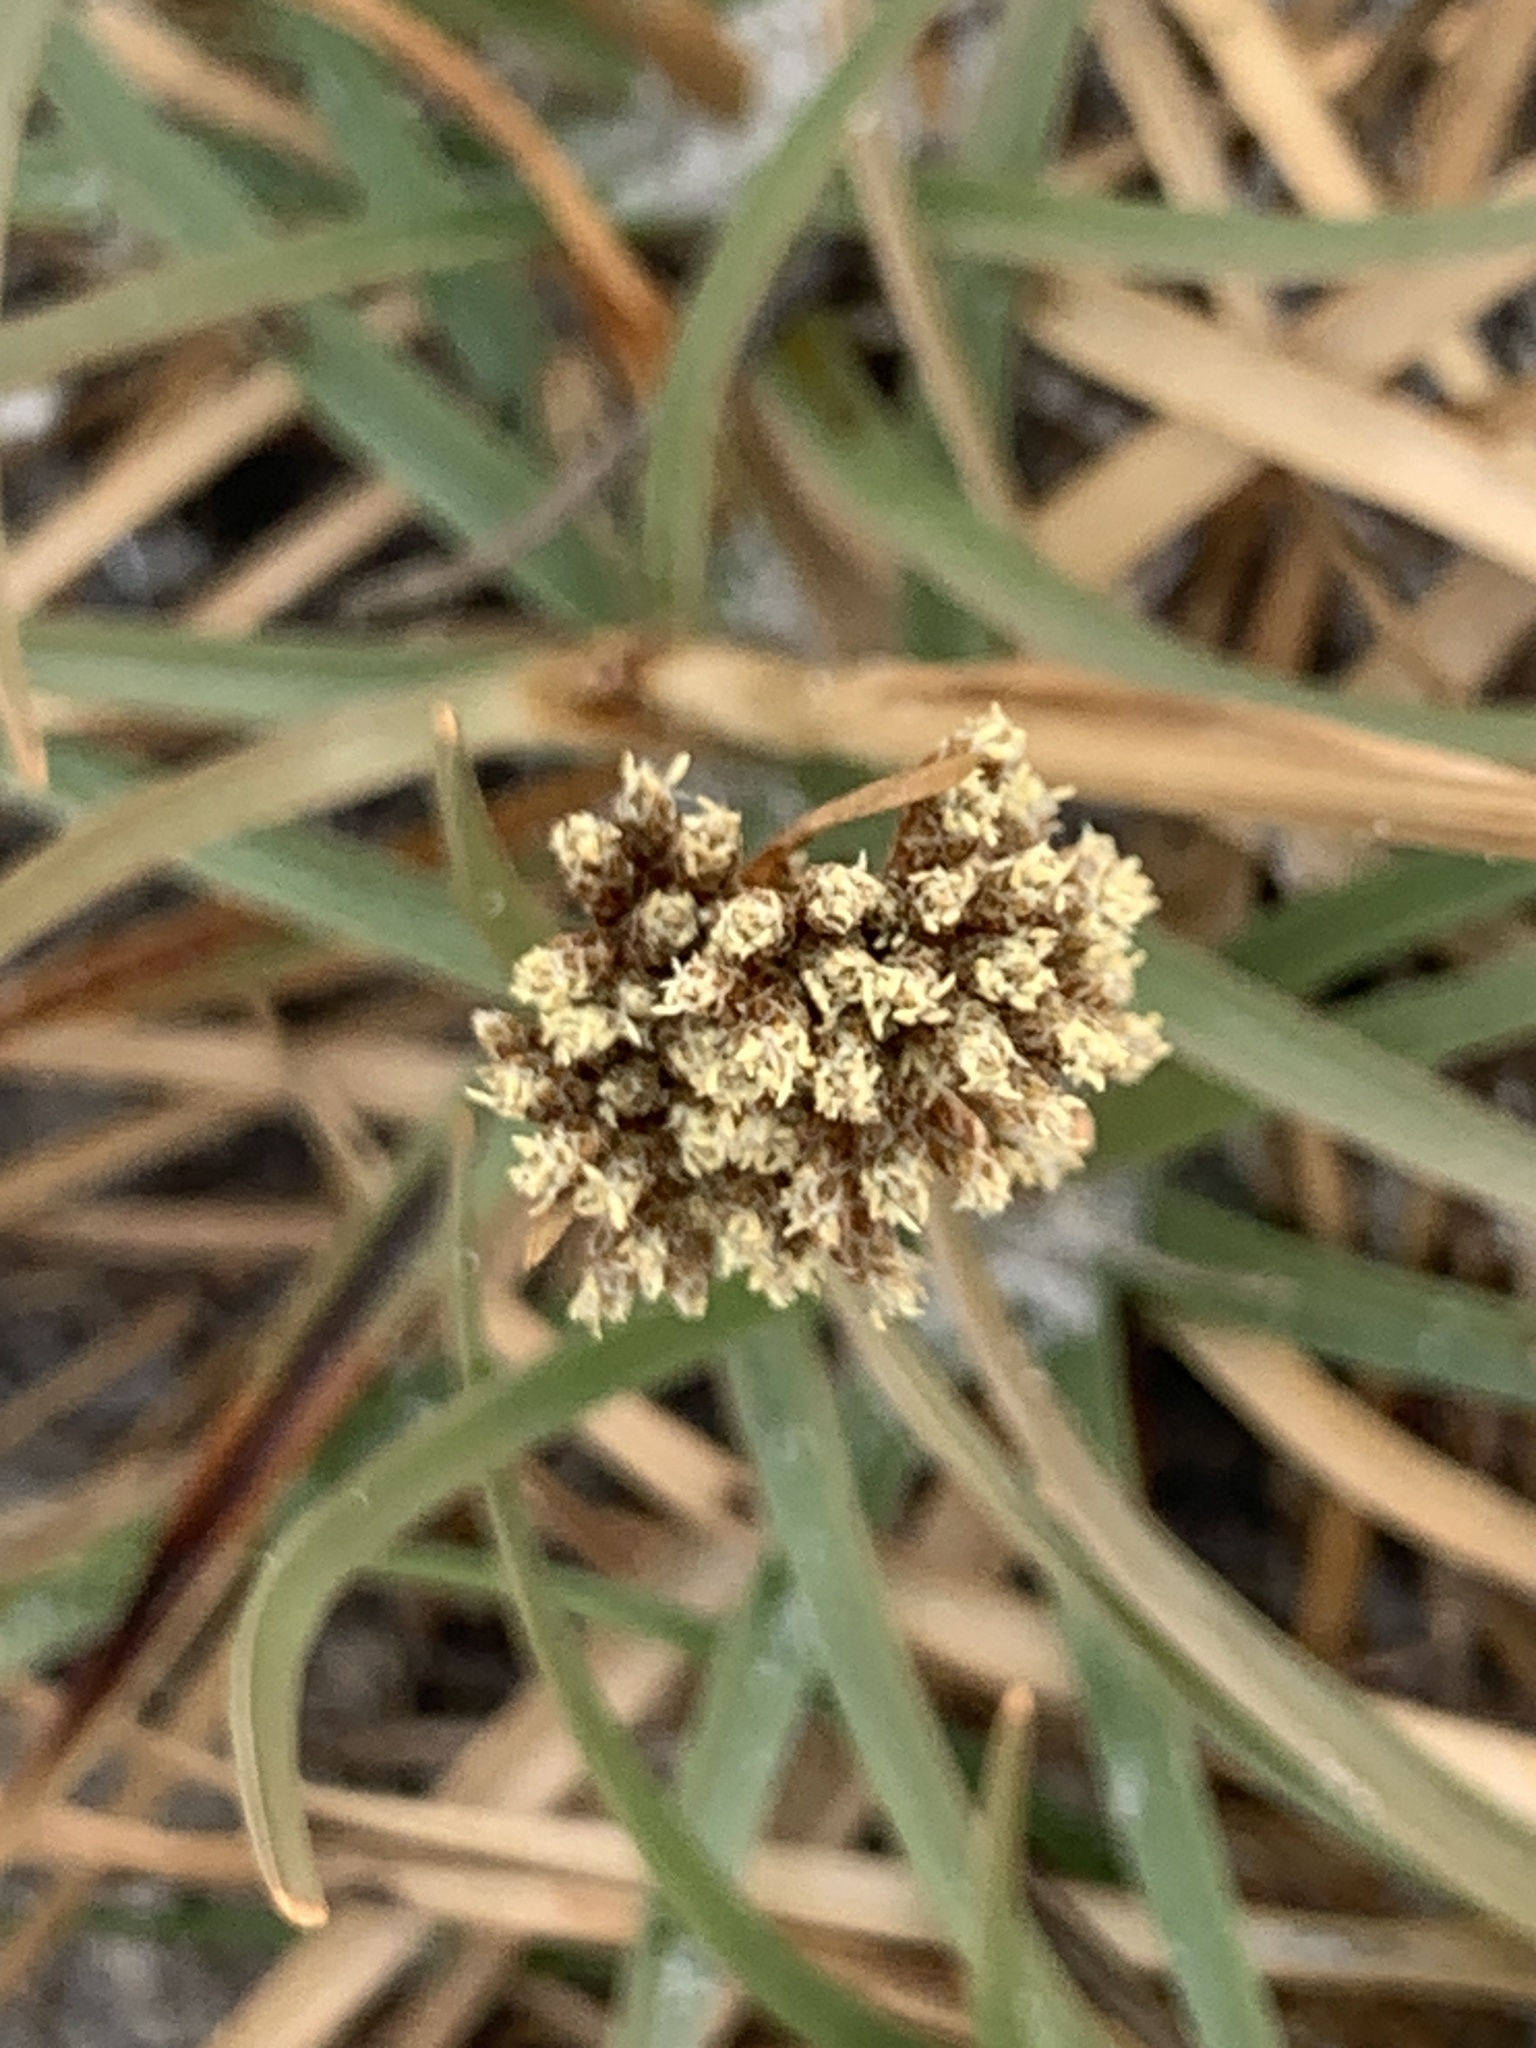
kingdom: Plantae
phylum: Tracheophyta
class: Liliopsida
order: Poales
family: Cyperaceae
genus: Fimbristylis
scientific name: Fimbristylis cymosa
